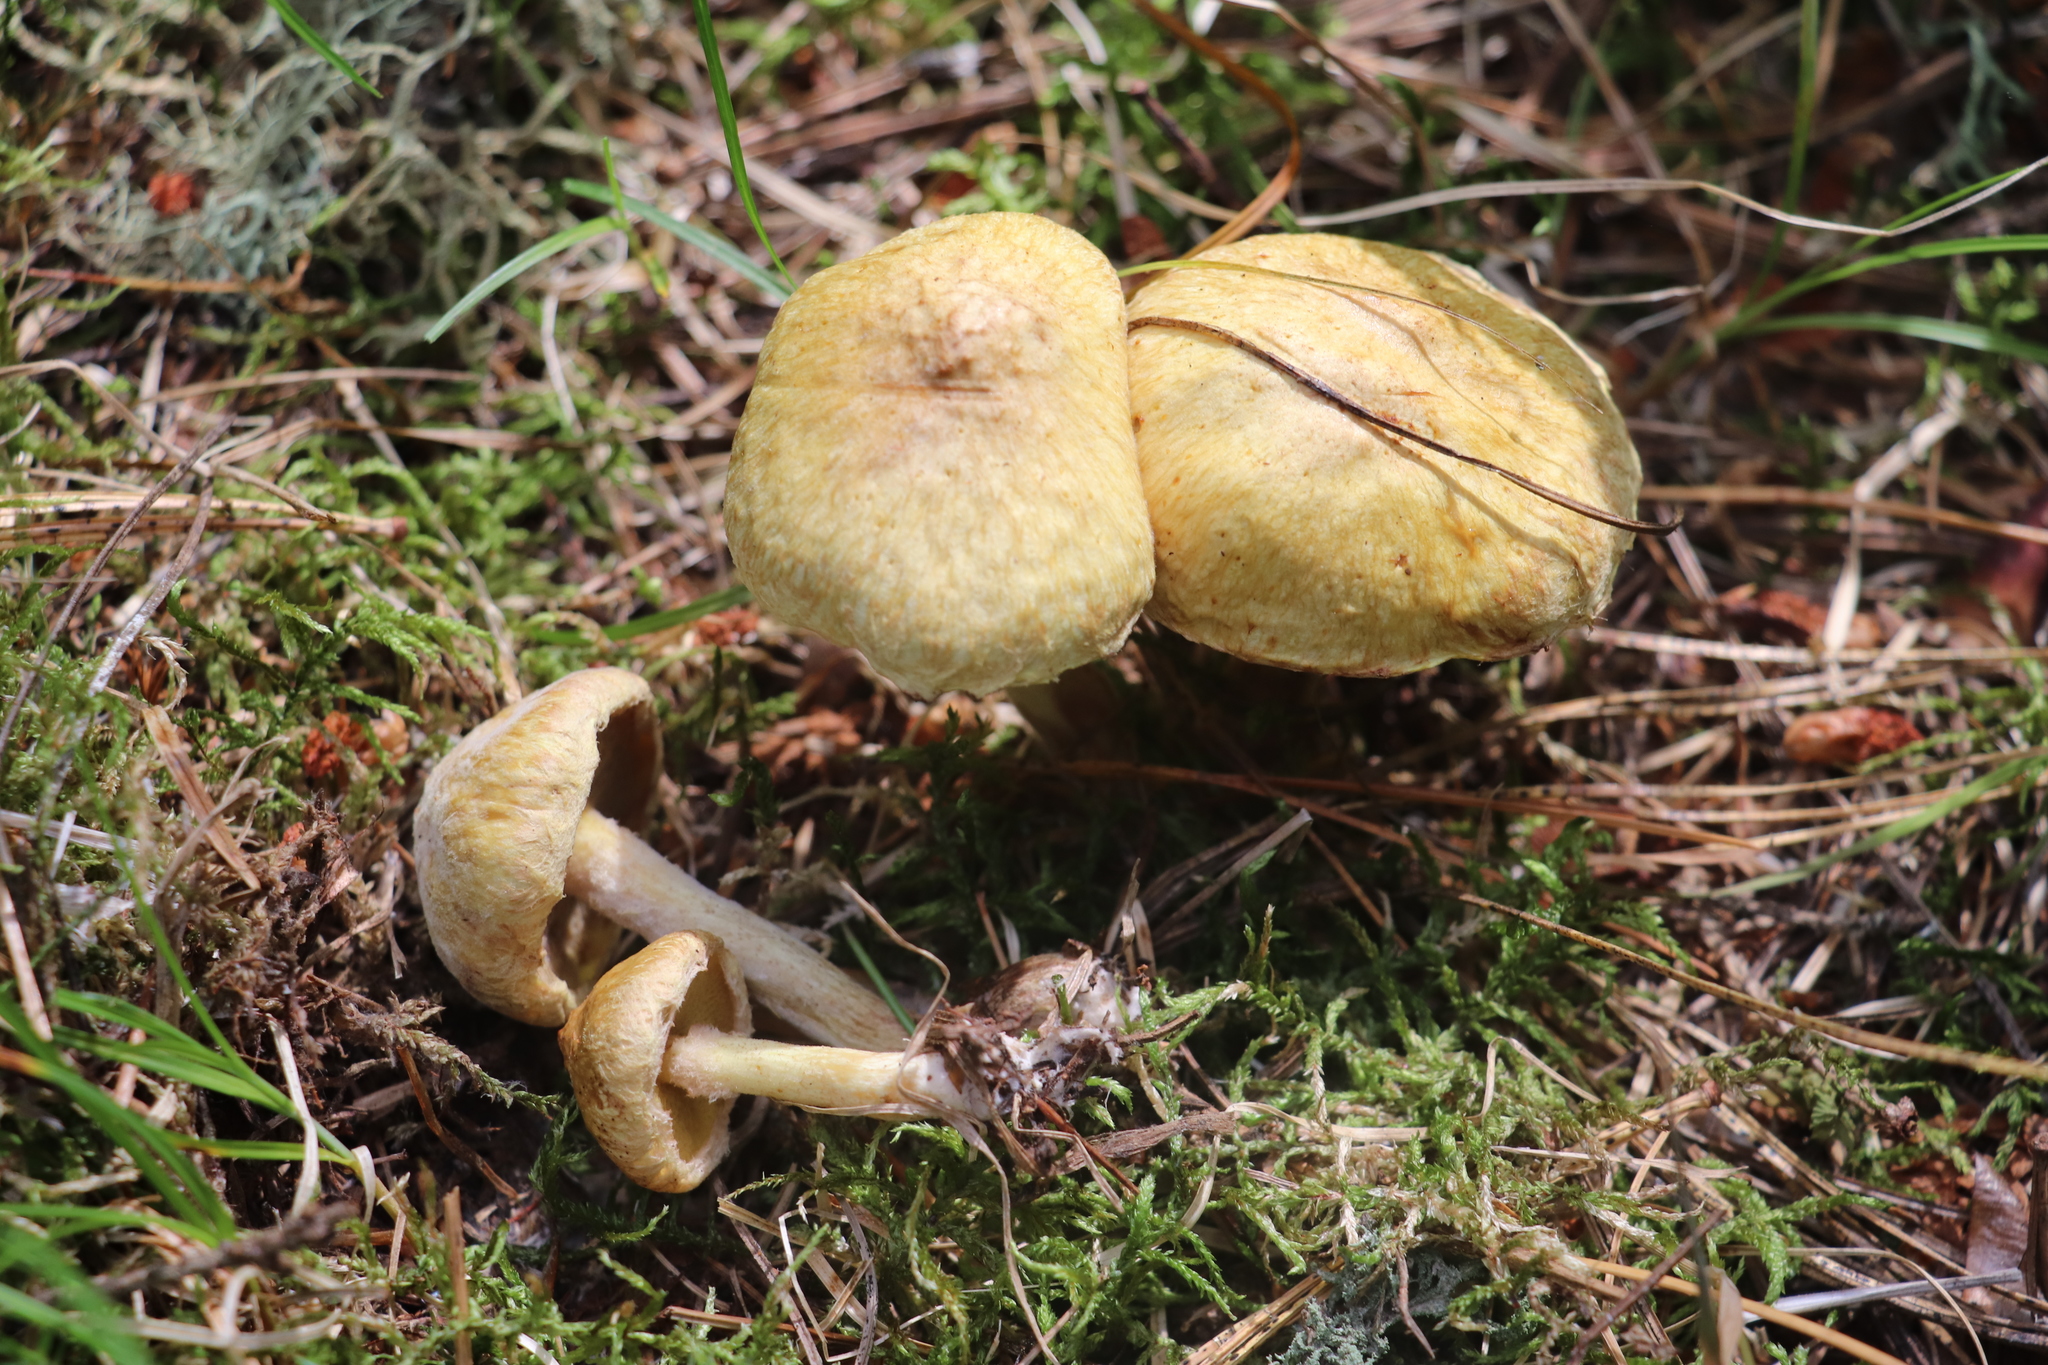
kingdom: Fungi
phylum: Basidiomycota
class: Agaricomycetes
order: Boletales
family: Suillaceae
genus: Suillus
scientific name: Suillus americanus
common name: Chicken fat mushroom
